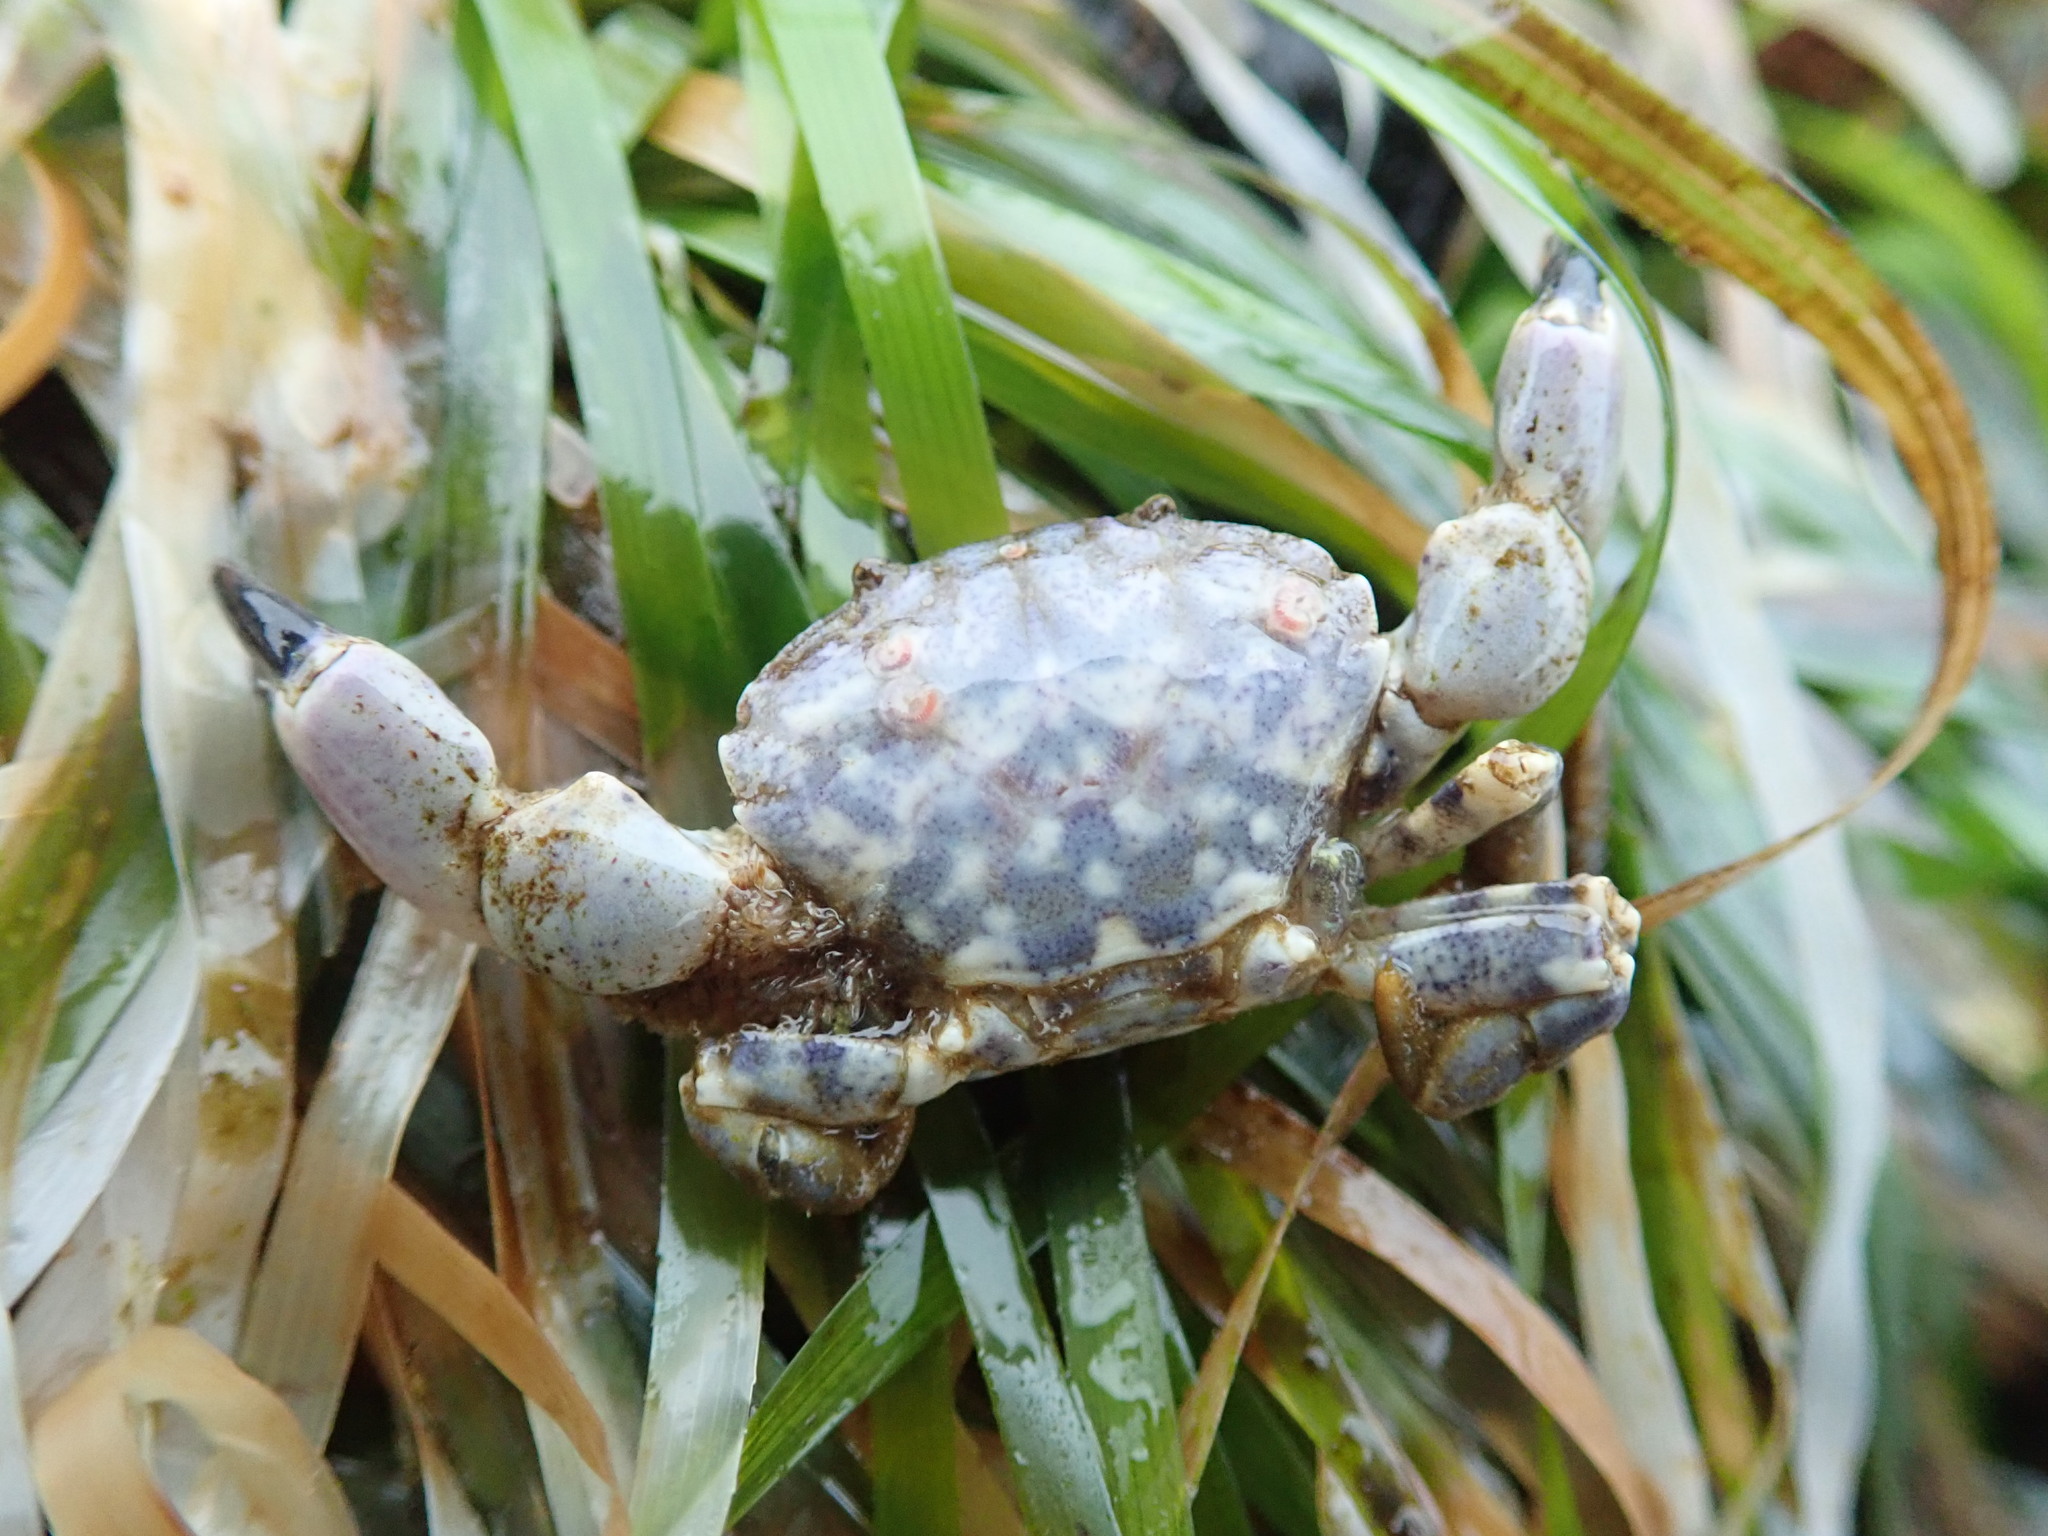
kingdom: Animalia
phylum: Arthropoda
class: Malacostraca
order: Decapoda
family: Panopeidae
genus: Lophopanopeus
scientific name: Lophopanopeus bellus
